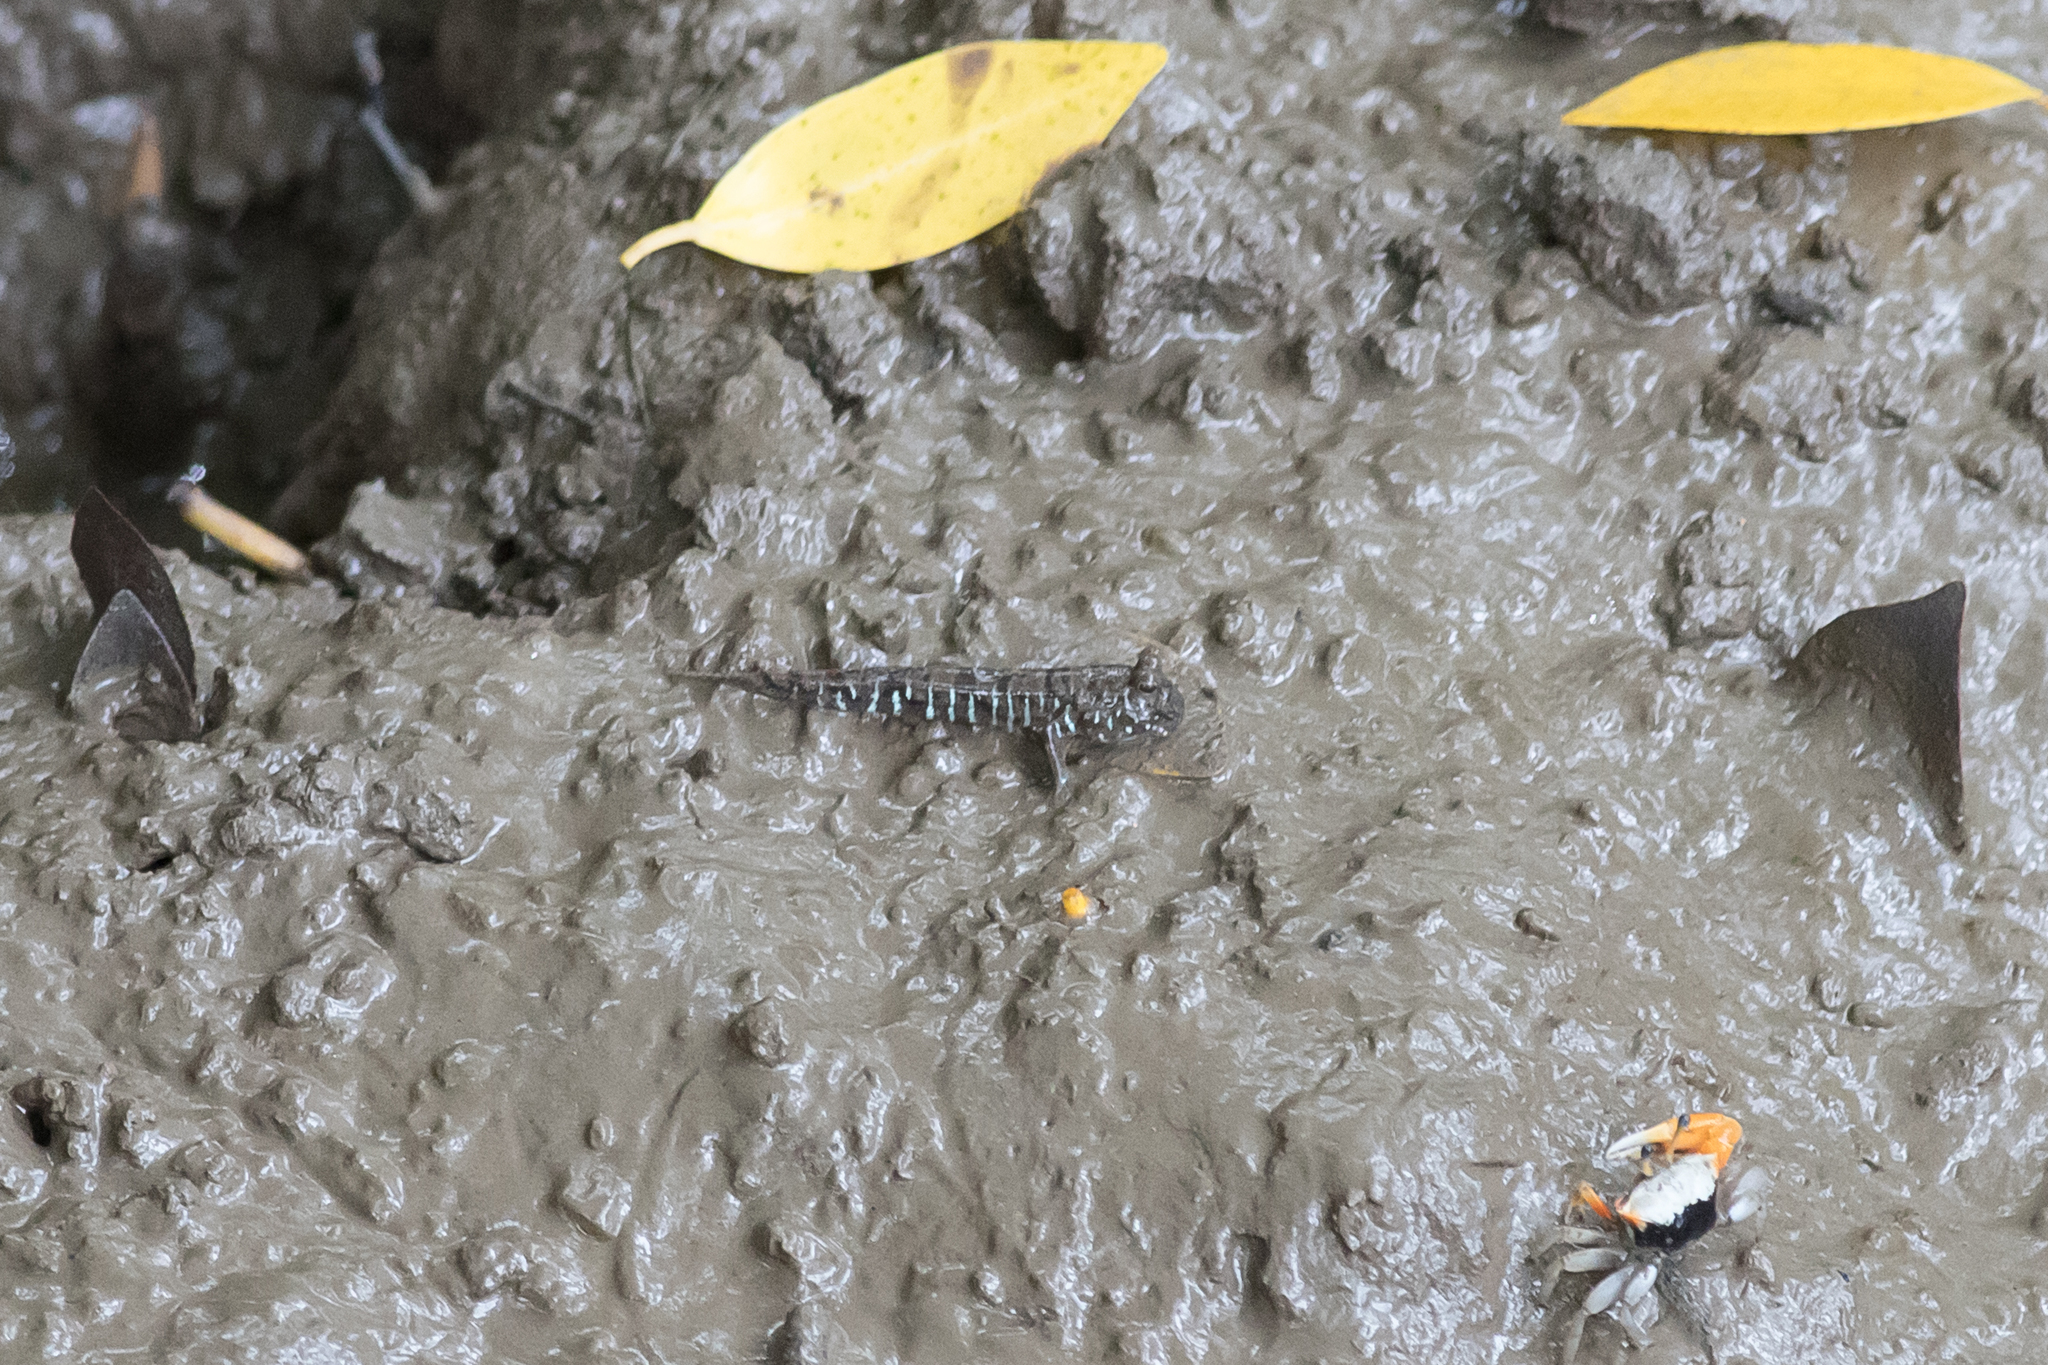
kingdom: Animalia
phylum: Chordata
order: Perciformes
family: Gobiidae
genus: Periophthalmus
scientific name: Periophthalmus gracilis
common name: Graceful mudskipper
